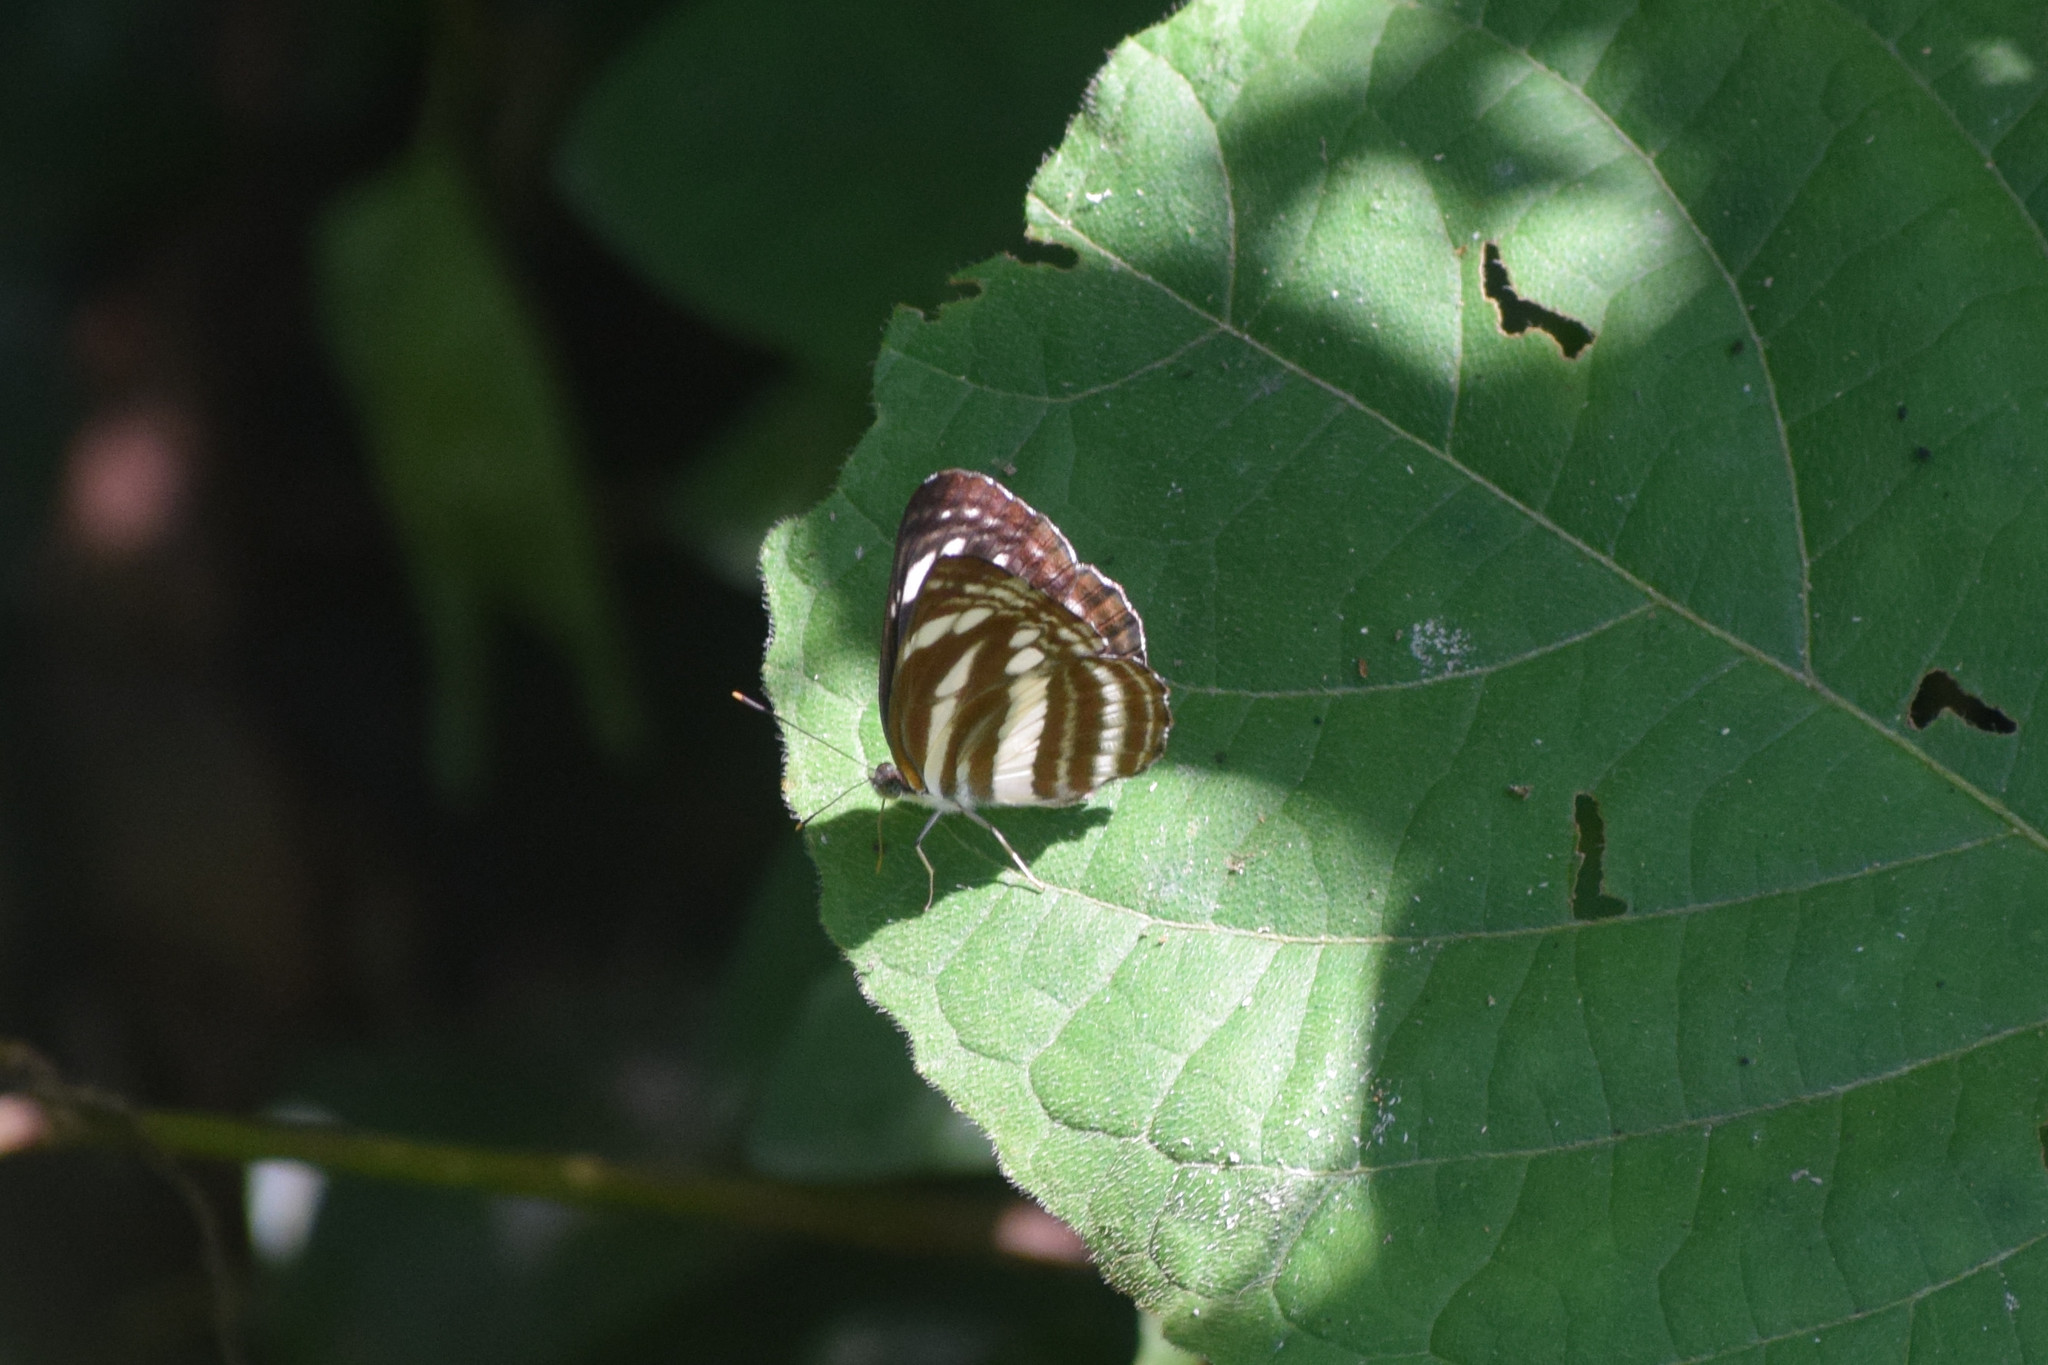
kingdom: Animalia
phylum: Arthropoda
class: Insecta
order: Lepidoptera
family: Nymphalidae
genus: Neptis
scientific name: Neptis hylas
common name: Common sailer
